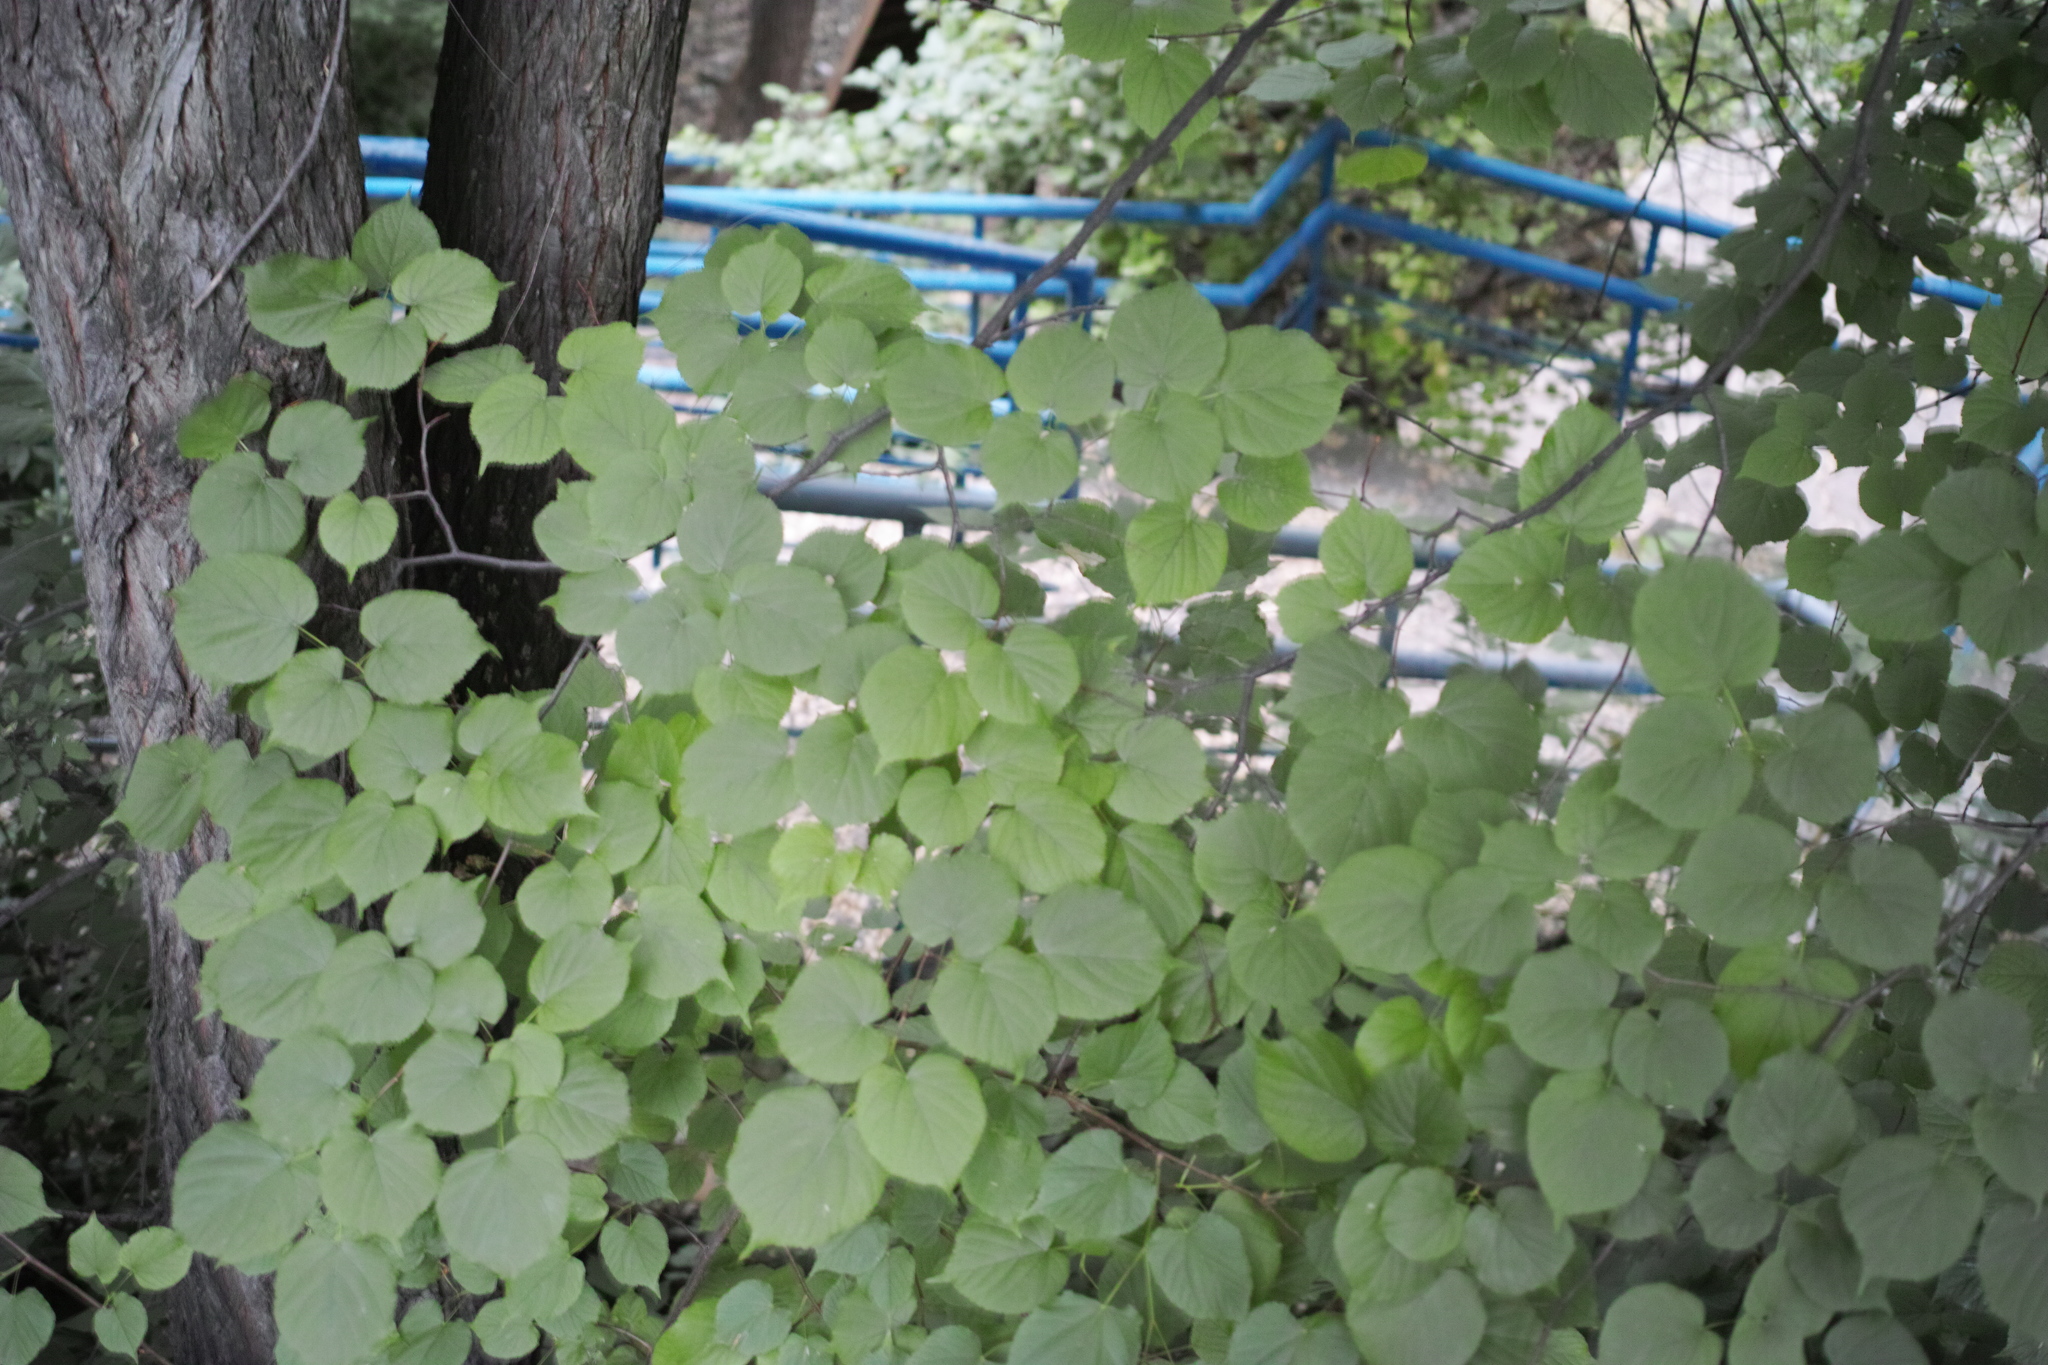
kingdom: Plantae
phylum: Tracheophyta
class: Magnoliopsida
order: Malvales
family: Malvaceae
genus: Tilia
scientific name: Tilia cordata
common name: Small-leaved lime
